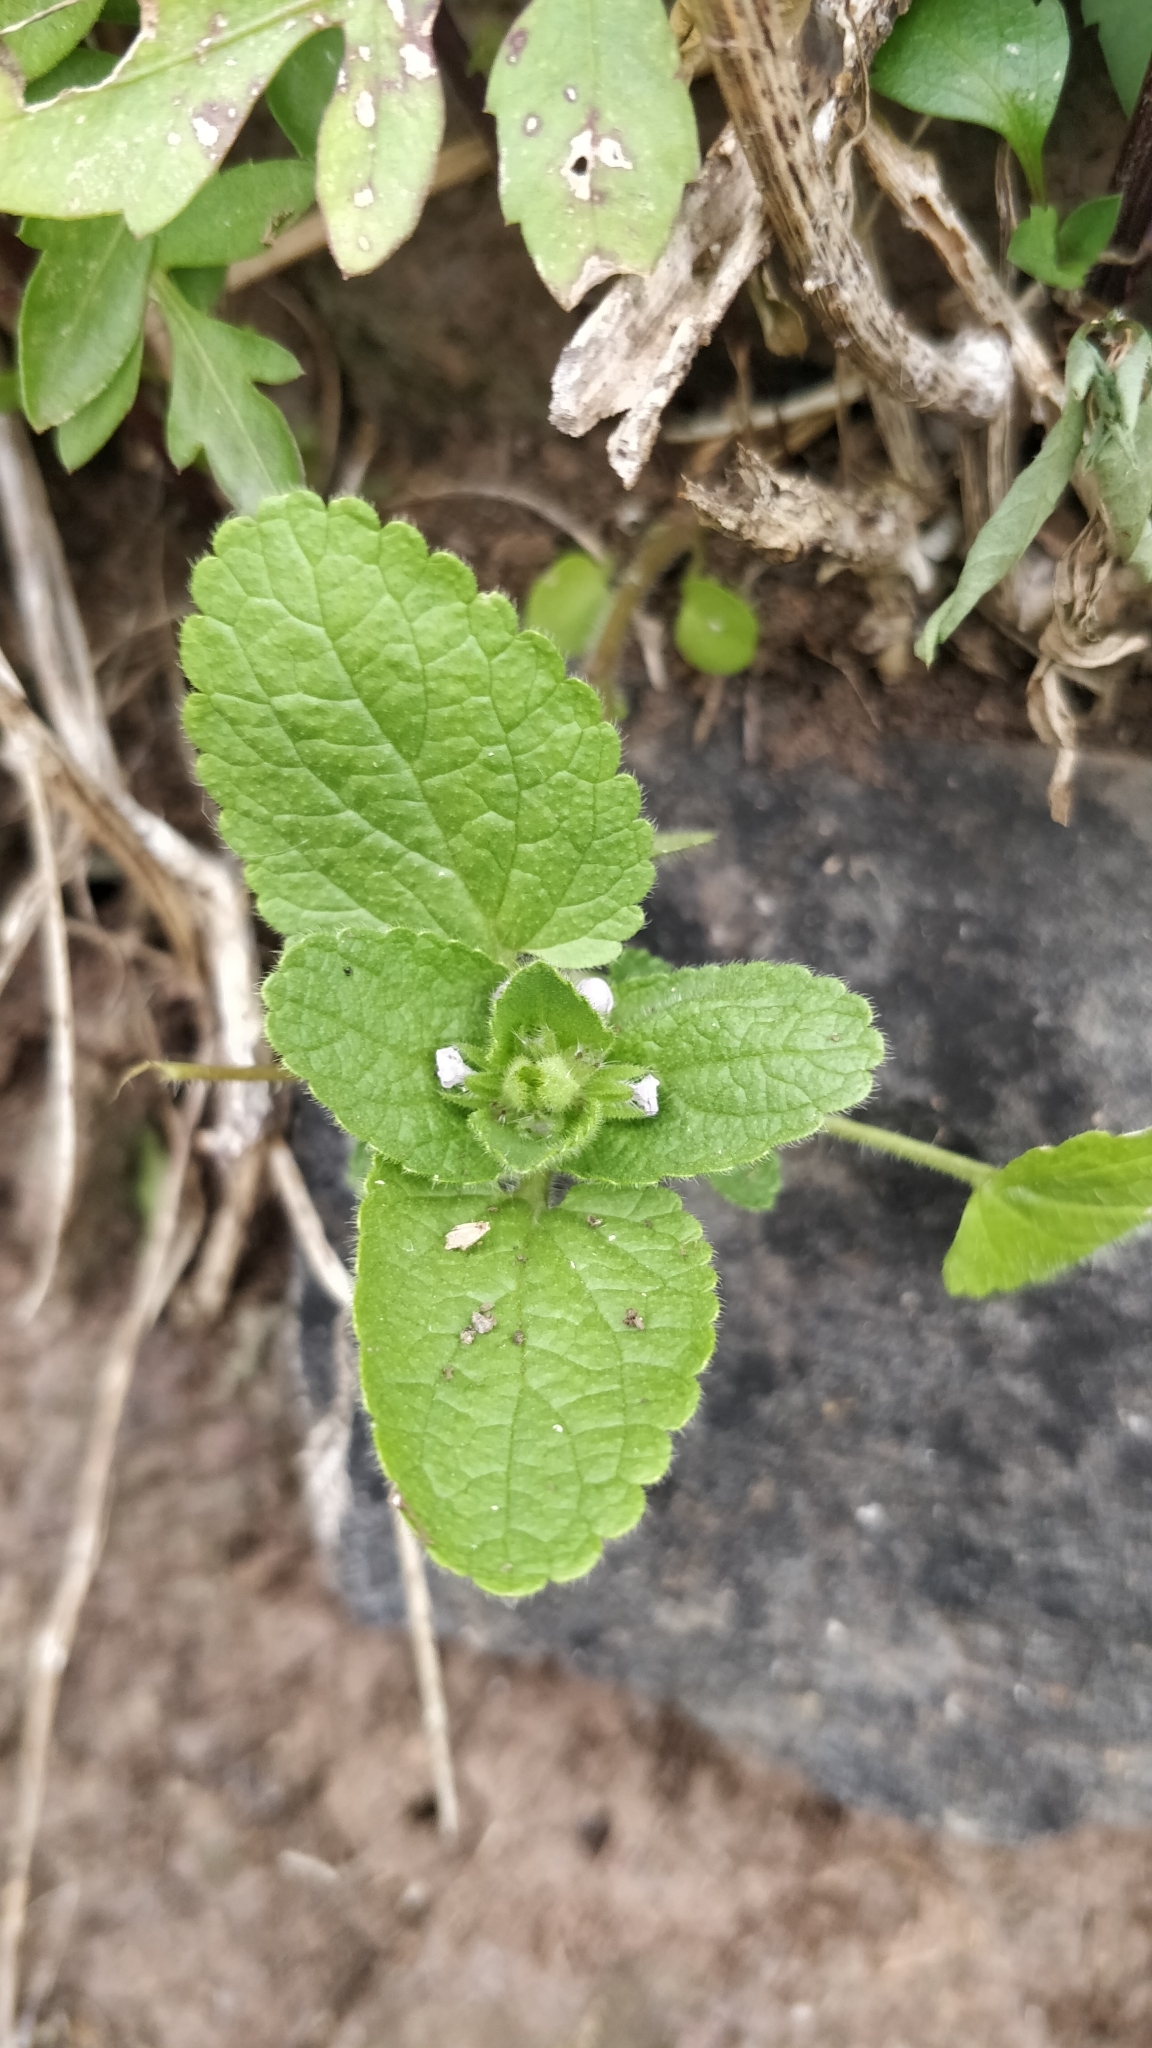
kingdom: Plantae
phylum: Tracheophyta
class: Magnoliopsida
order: Lamiales
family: Lamiaceae
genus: Stachys
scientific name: Stachys arvensis
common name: Field woundwort
